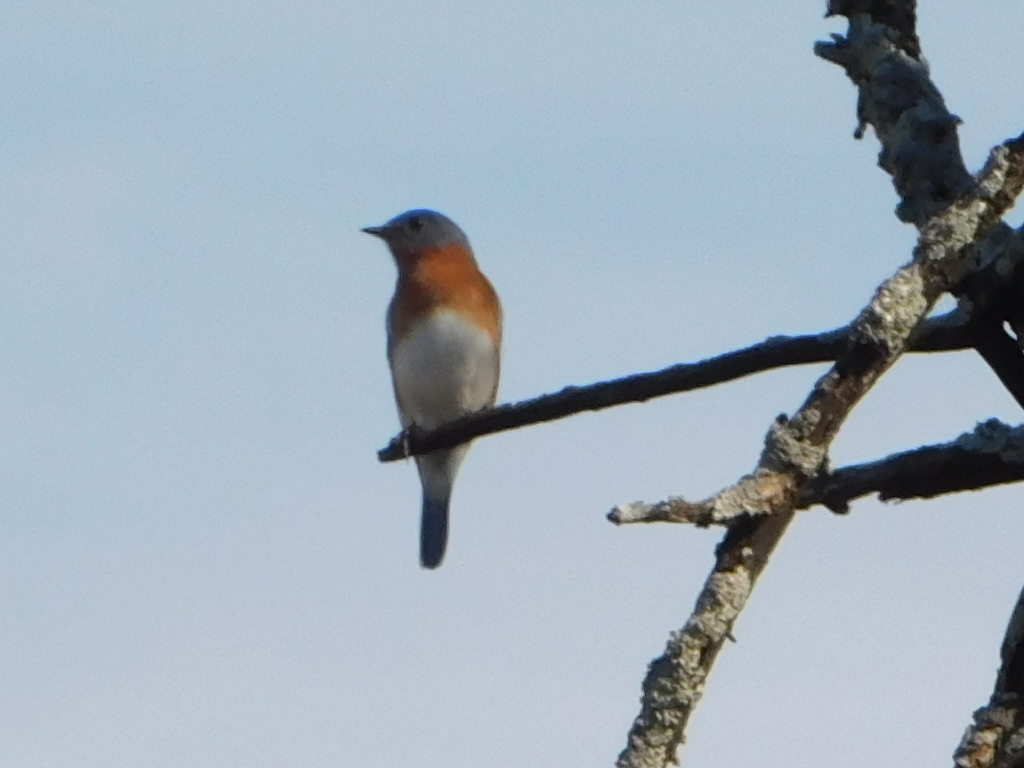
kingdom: Animalia
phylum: Chordata
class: Aves
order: Passeriformes
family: Turdidae
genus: Sialia
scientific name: Sialia sialis
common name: Eastern bluebird
